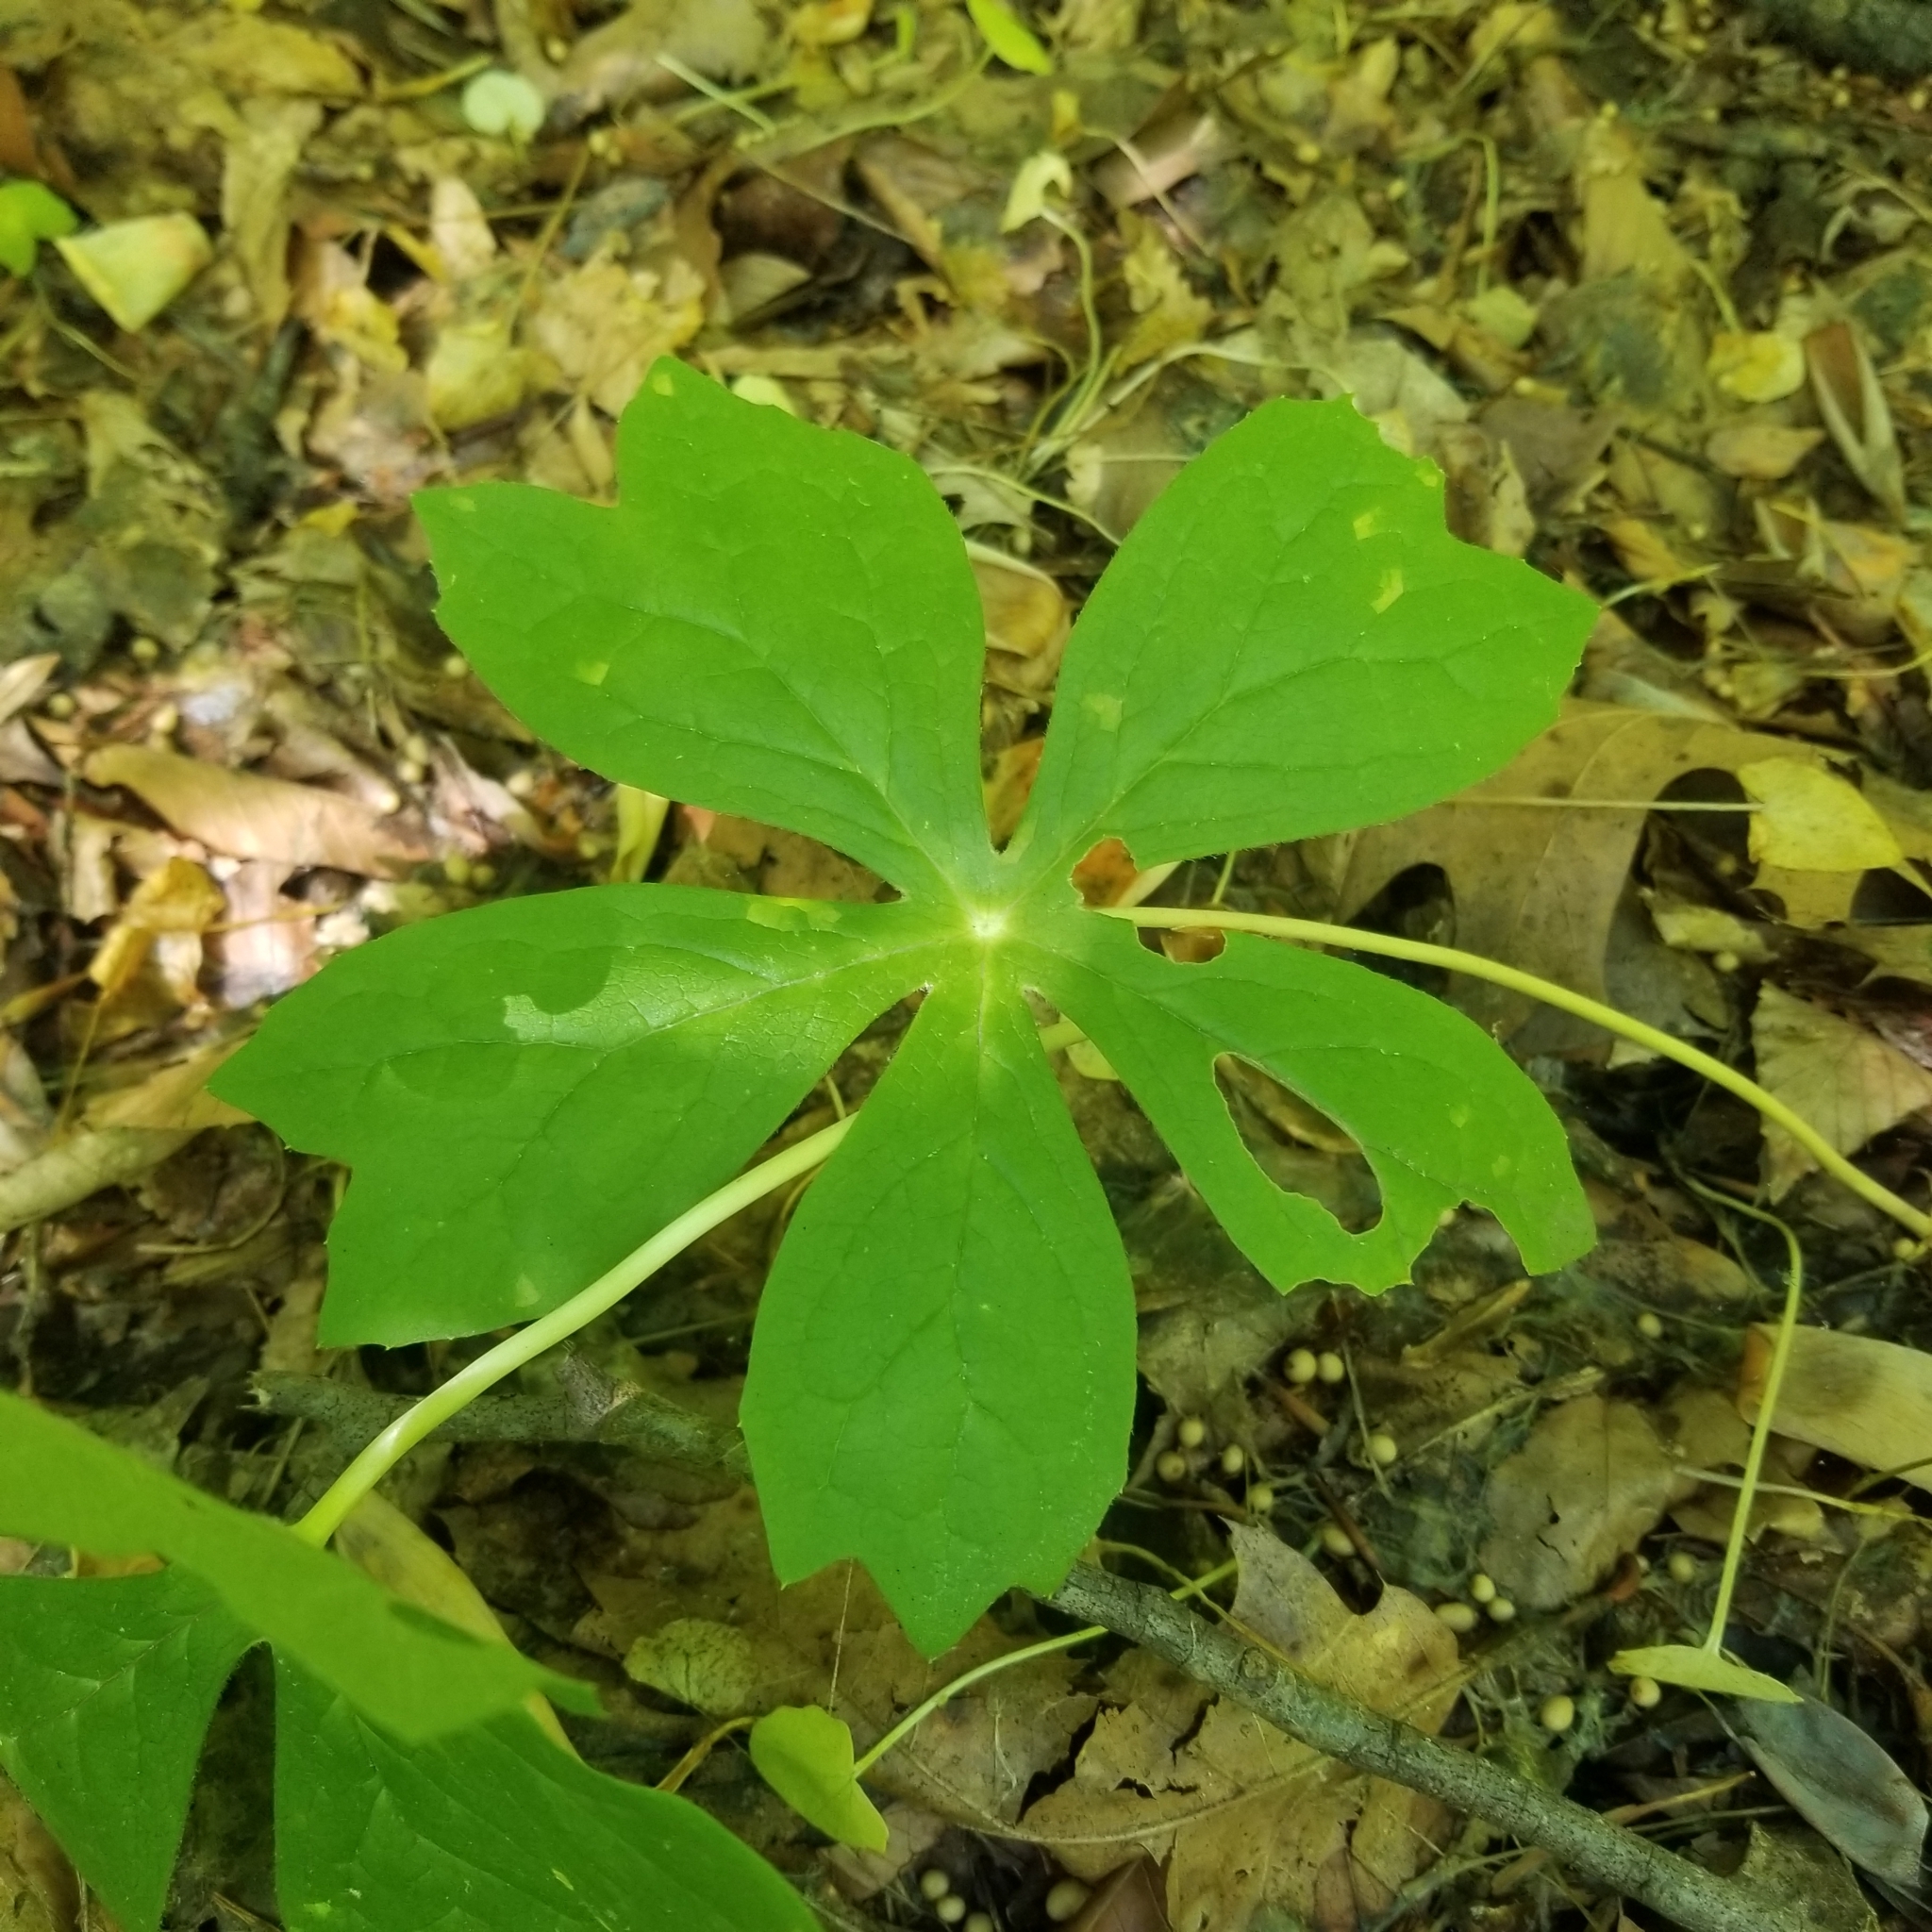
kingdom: Plantae
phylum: Tracheophyta
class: Magnoliopsida
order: Ranunculales
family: Berberidaceae
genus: Podophyllum
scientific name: Podophyllum peltatum
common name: Wild mandrake
